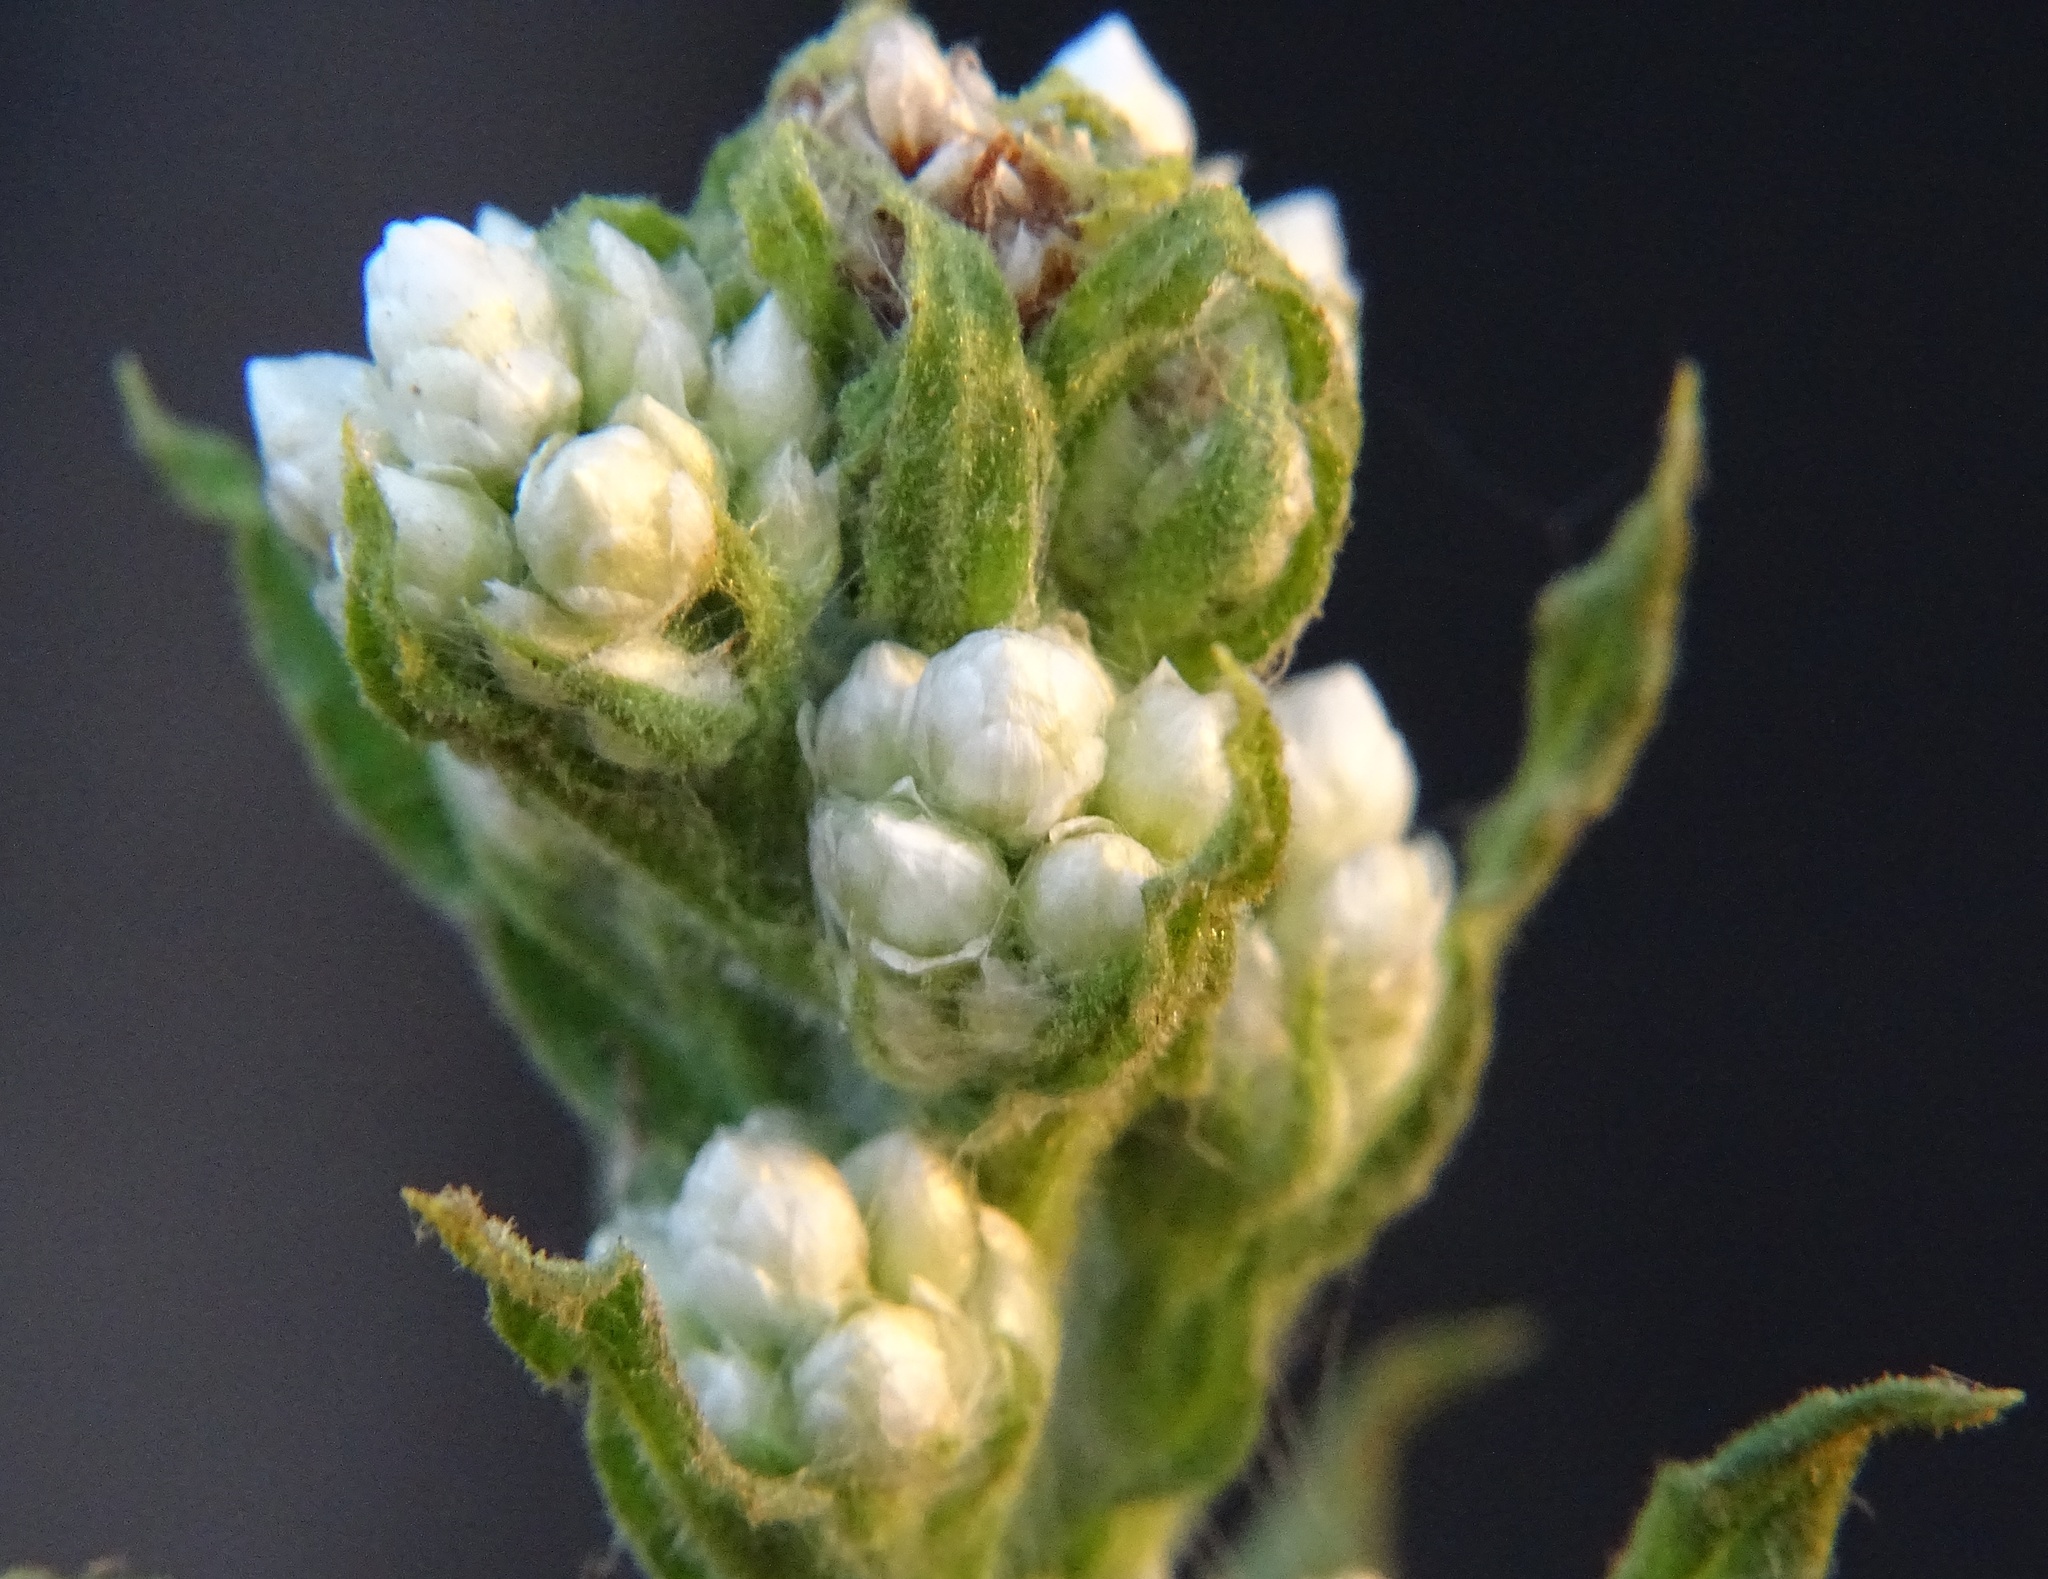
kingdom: Plantae
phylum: Tracheophyta
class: Magnoliopsida
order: Asterales
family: Asteraceae
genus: Pseudognaphalium
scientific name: Pseudognaphalium californicum
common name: California rabbit-tobacco
